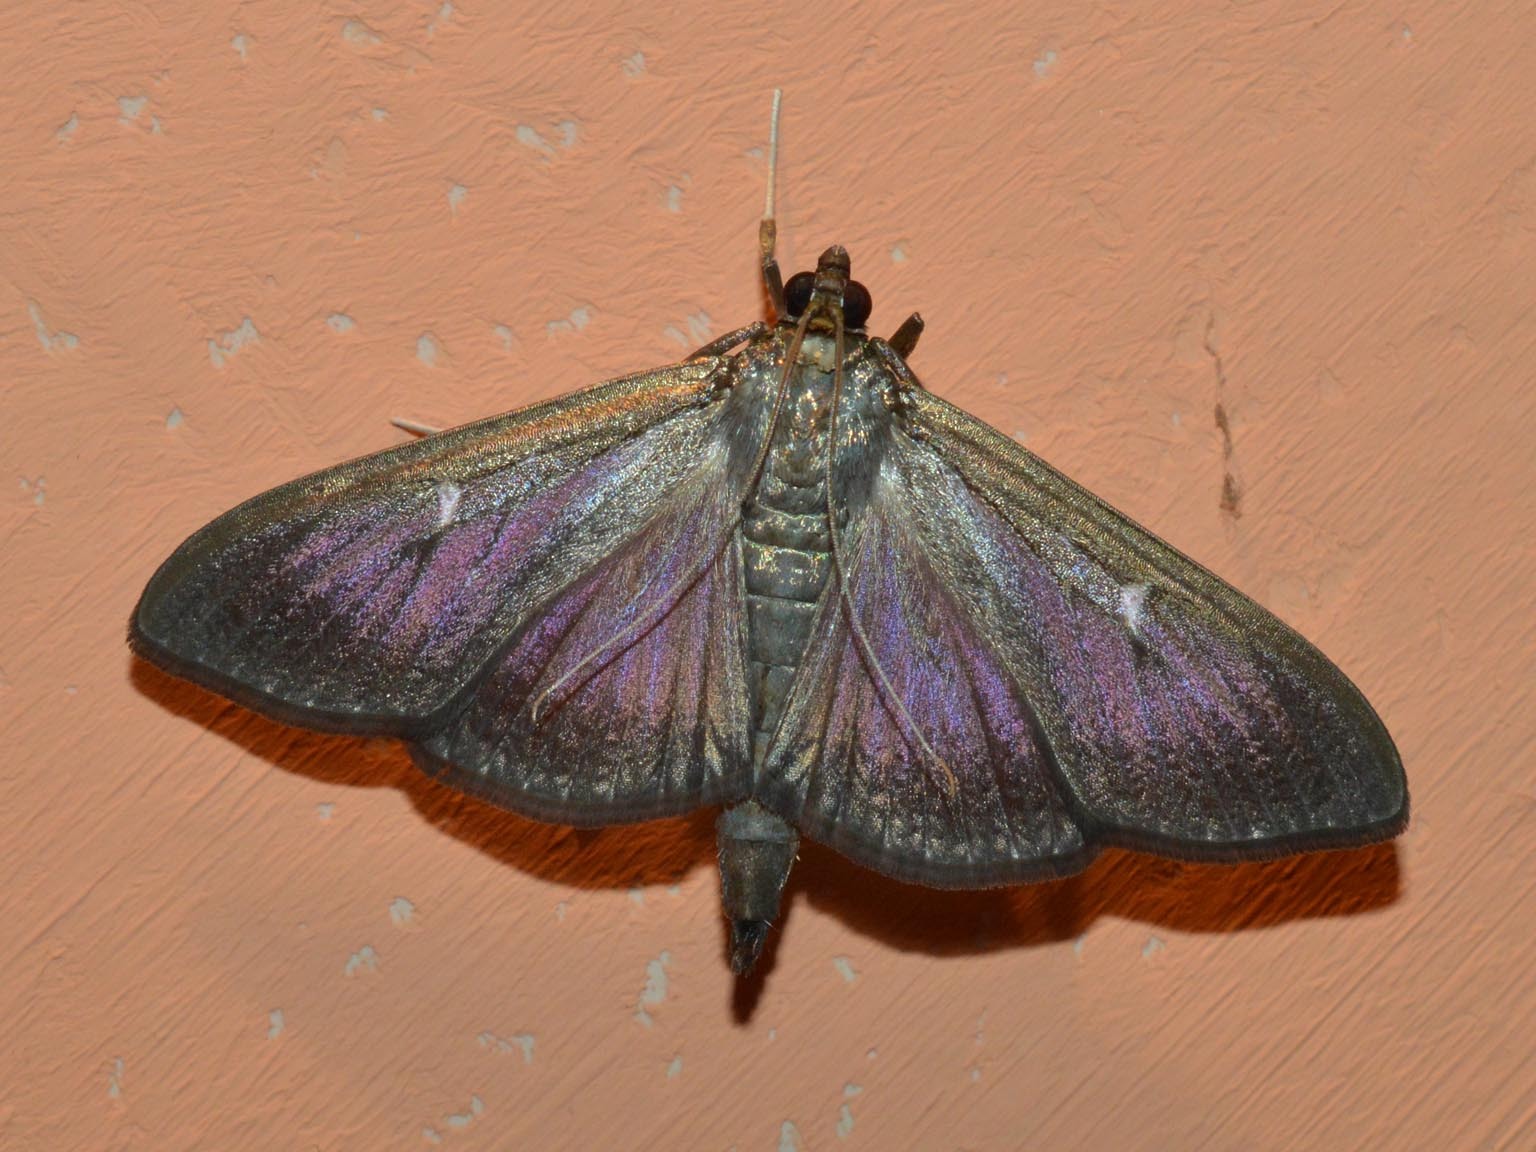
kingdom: Animalia
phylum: Arthropoda
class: Insecta
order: Lepidoptera
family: Crambidae
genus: Cydalima
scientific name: Cydalima perspectalis
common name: Box tree moth
